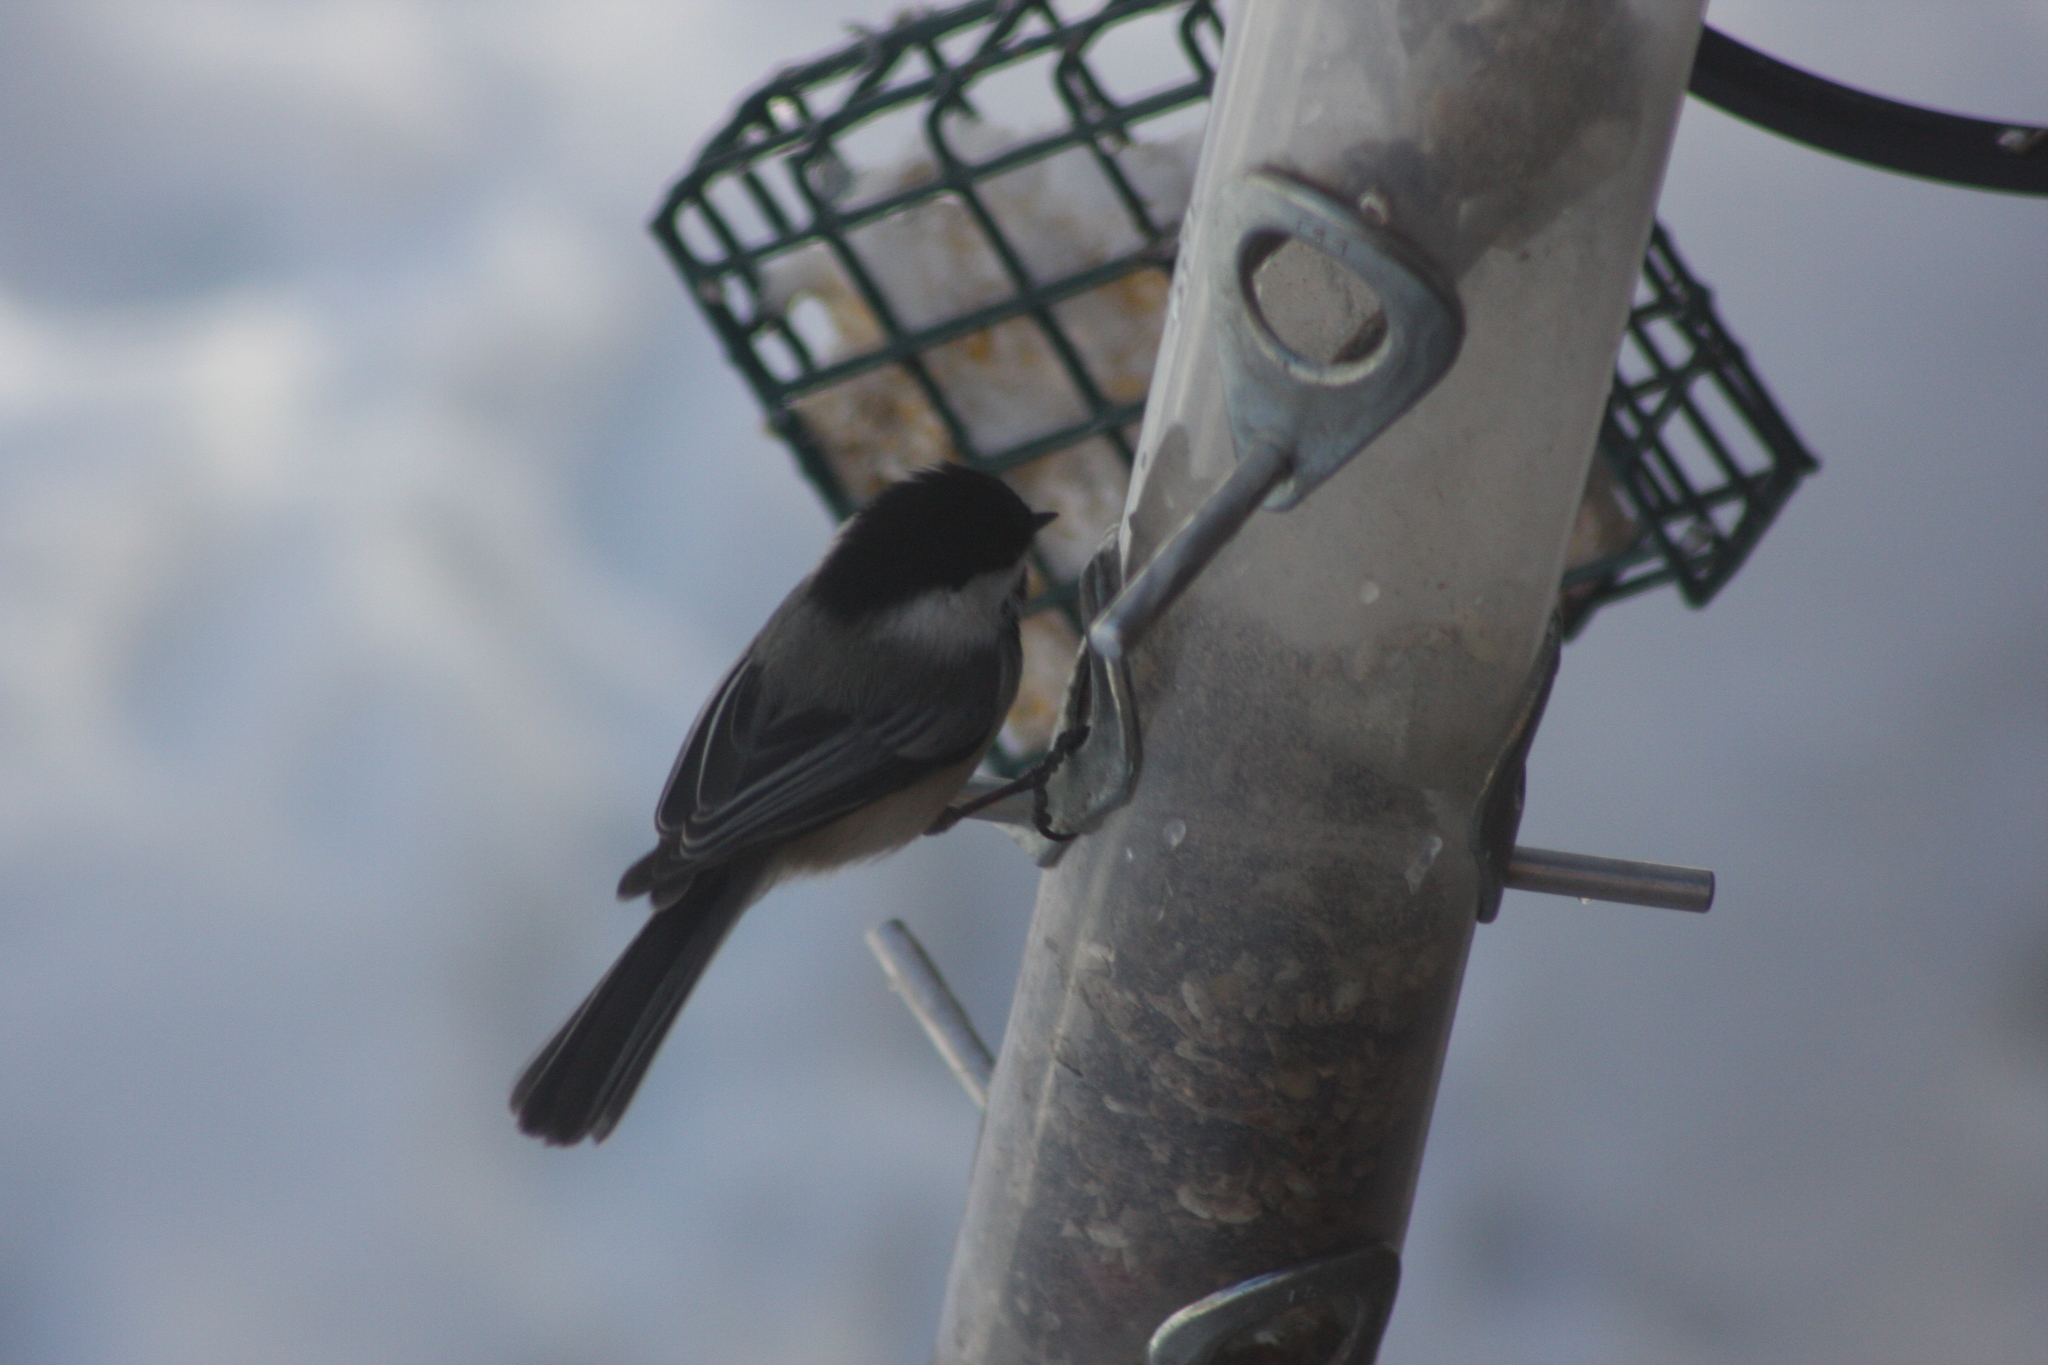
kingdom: Animalia
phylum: Chordata
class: Aves
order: Passeriformes
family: Paridae
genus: Poecile
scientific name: Poecile atricapillus
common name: Black-capped chickadee
